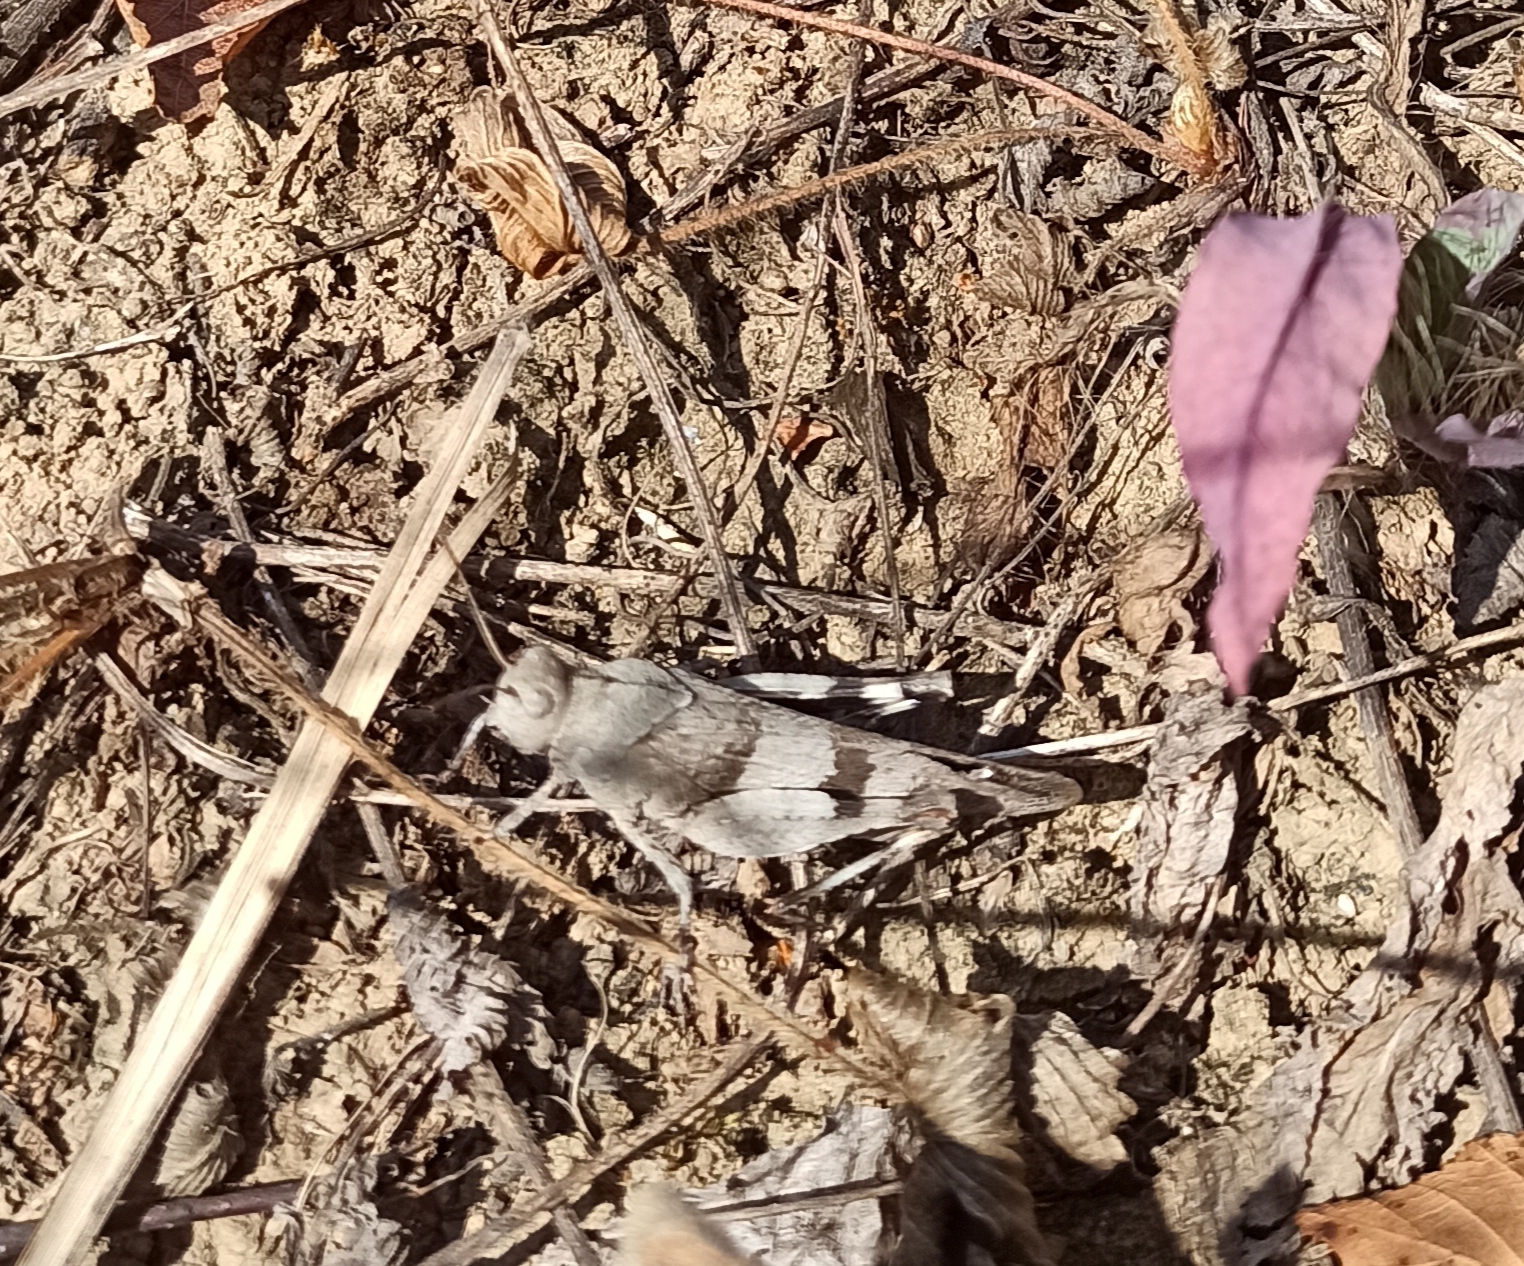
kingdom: Animalia
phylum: Arthropoda
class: Insecta
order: Orthoptera
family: Acrididae
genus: Oedipoda
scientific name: Oedipoda caerulescens
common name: Blue-winged grasshopper
